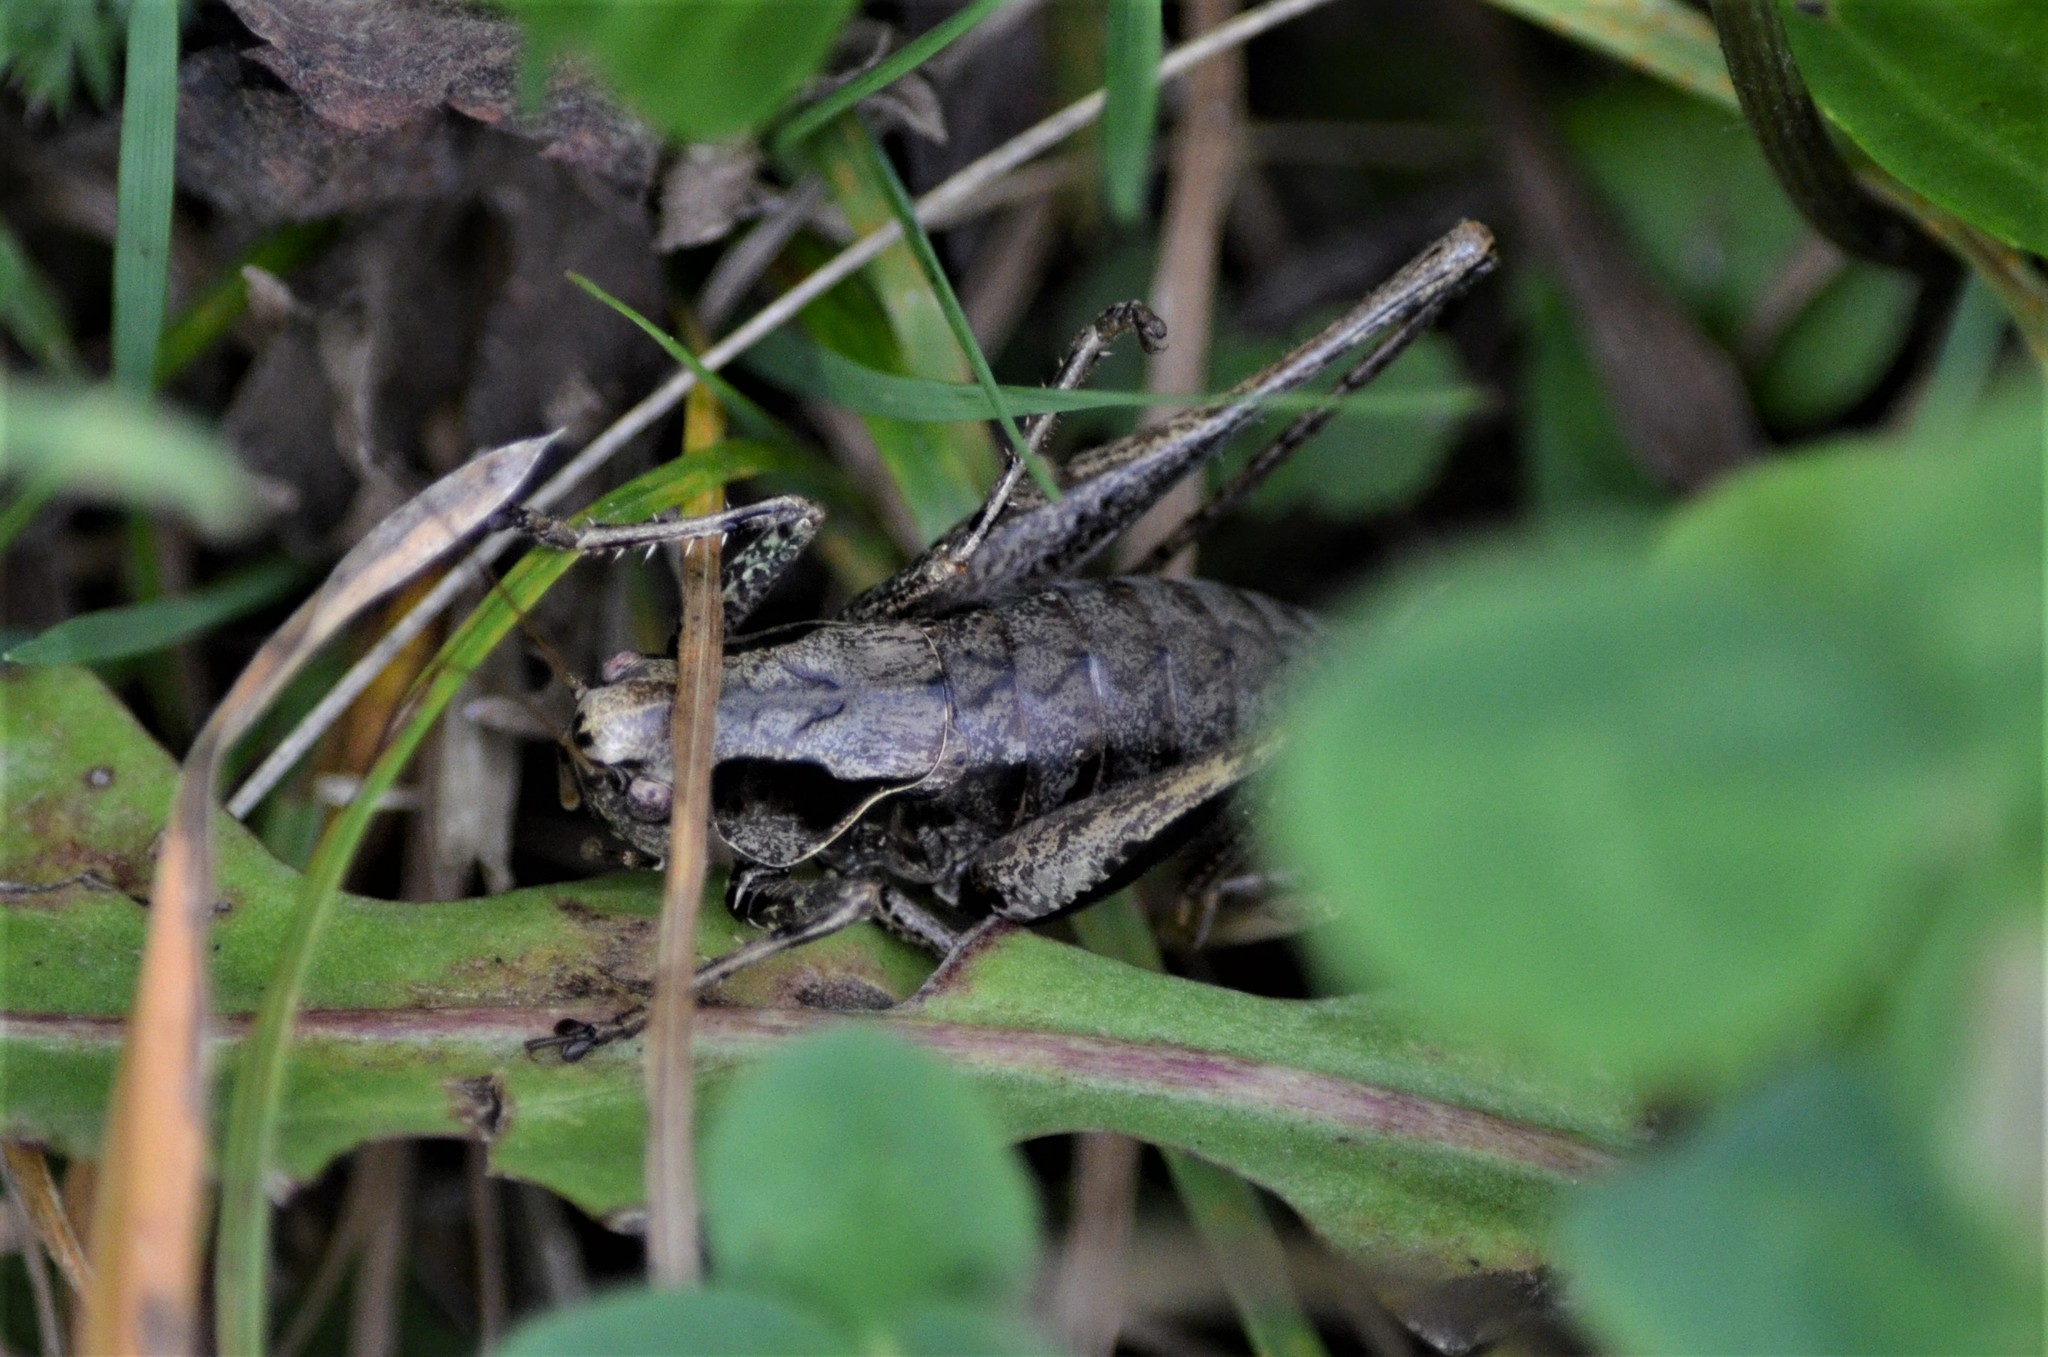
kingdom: Animalia
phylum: Arthropoda
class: Insecta
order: Orthoptera
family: Tettigoniidae
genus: Pholidoptera
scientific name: Pholidoptera griseoaptera
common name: Dark bush-cricket
